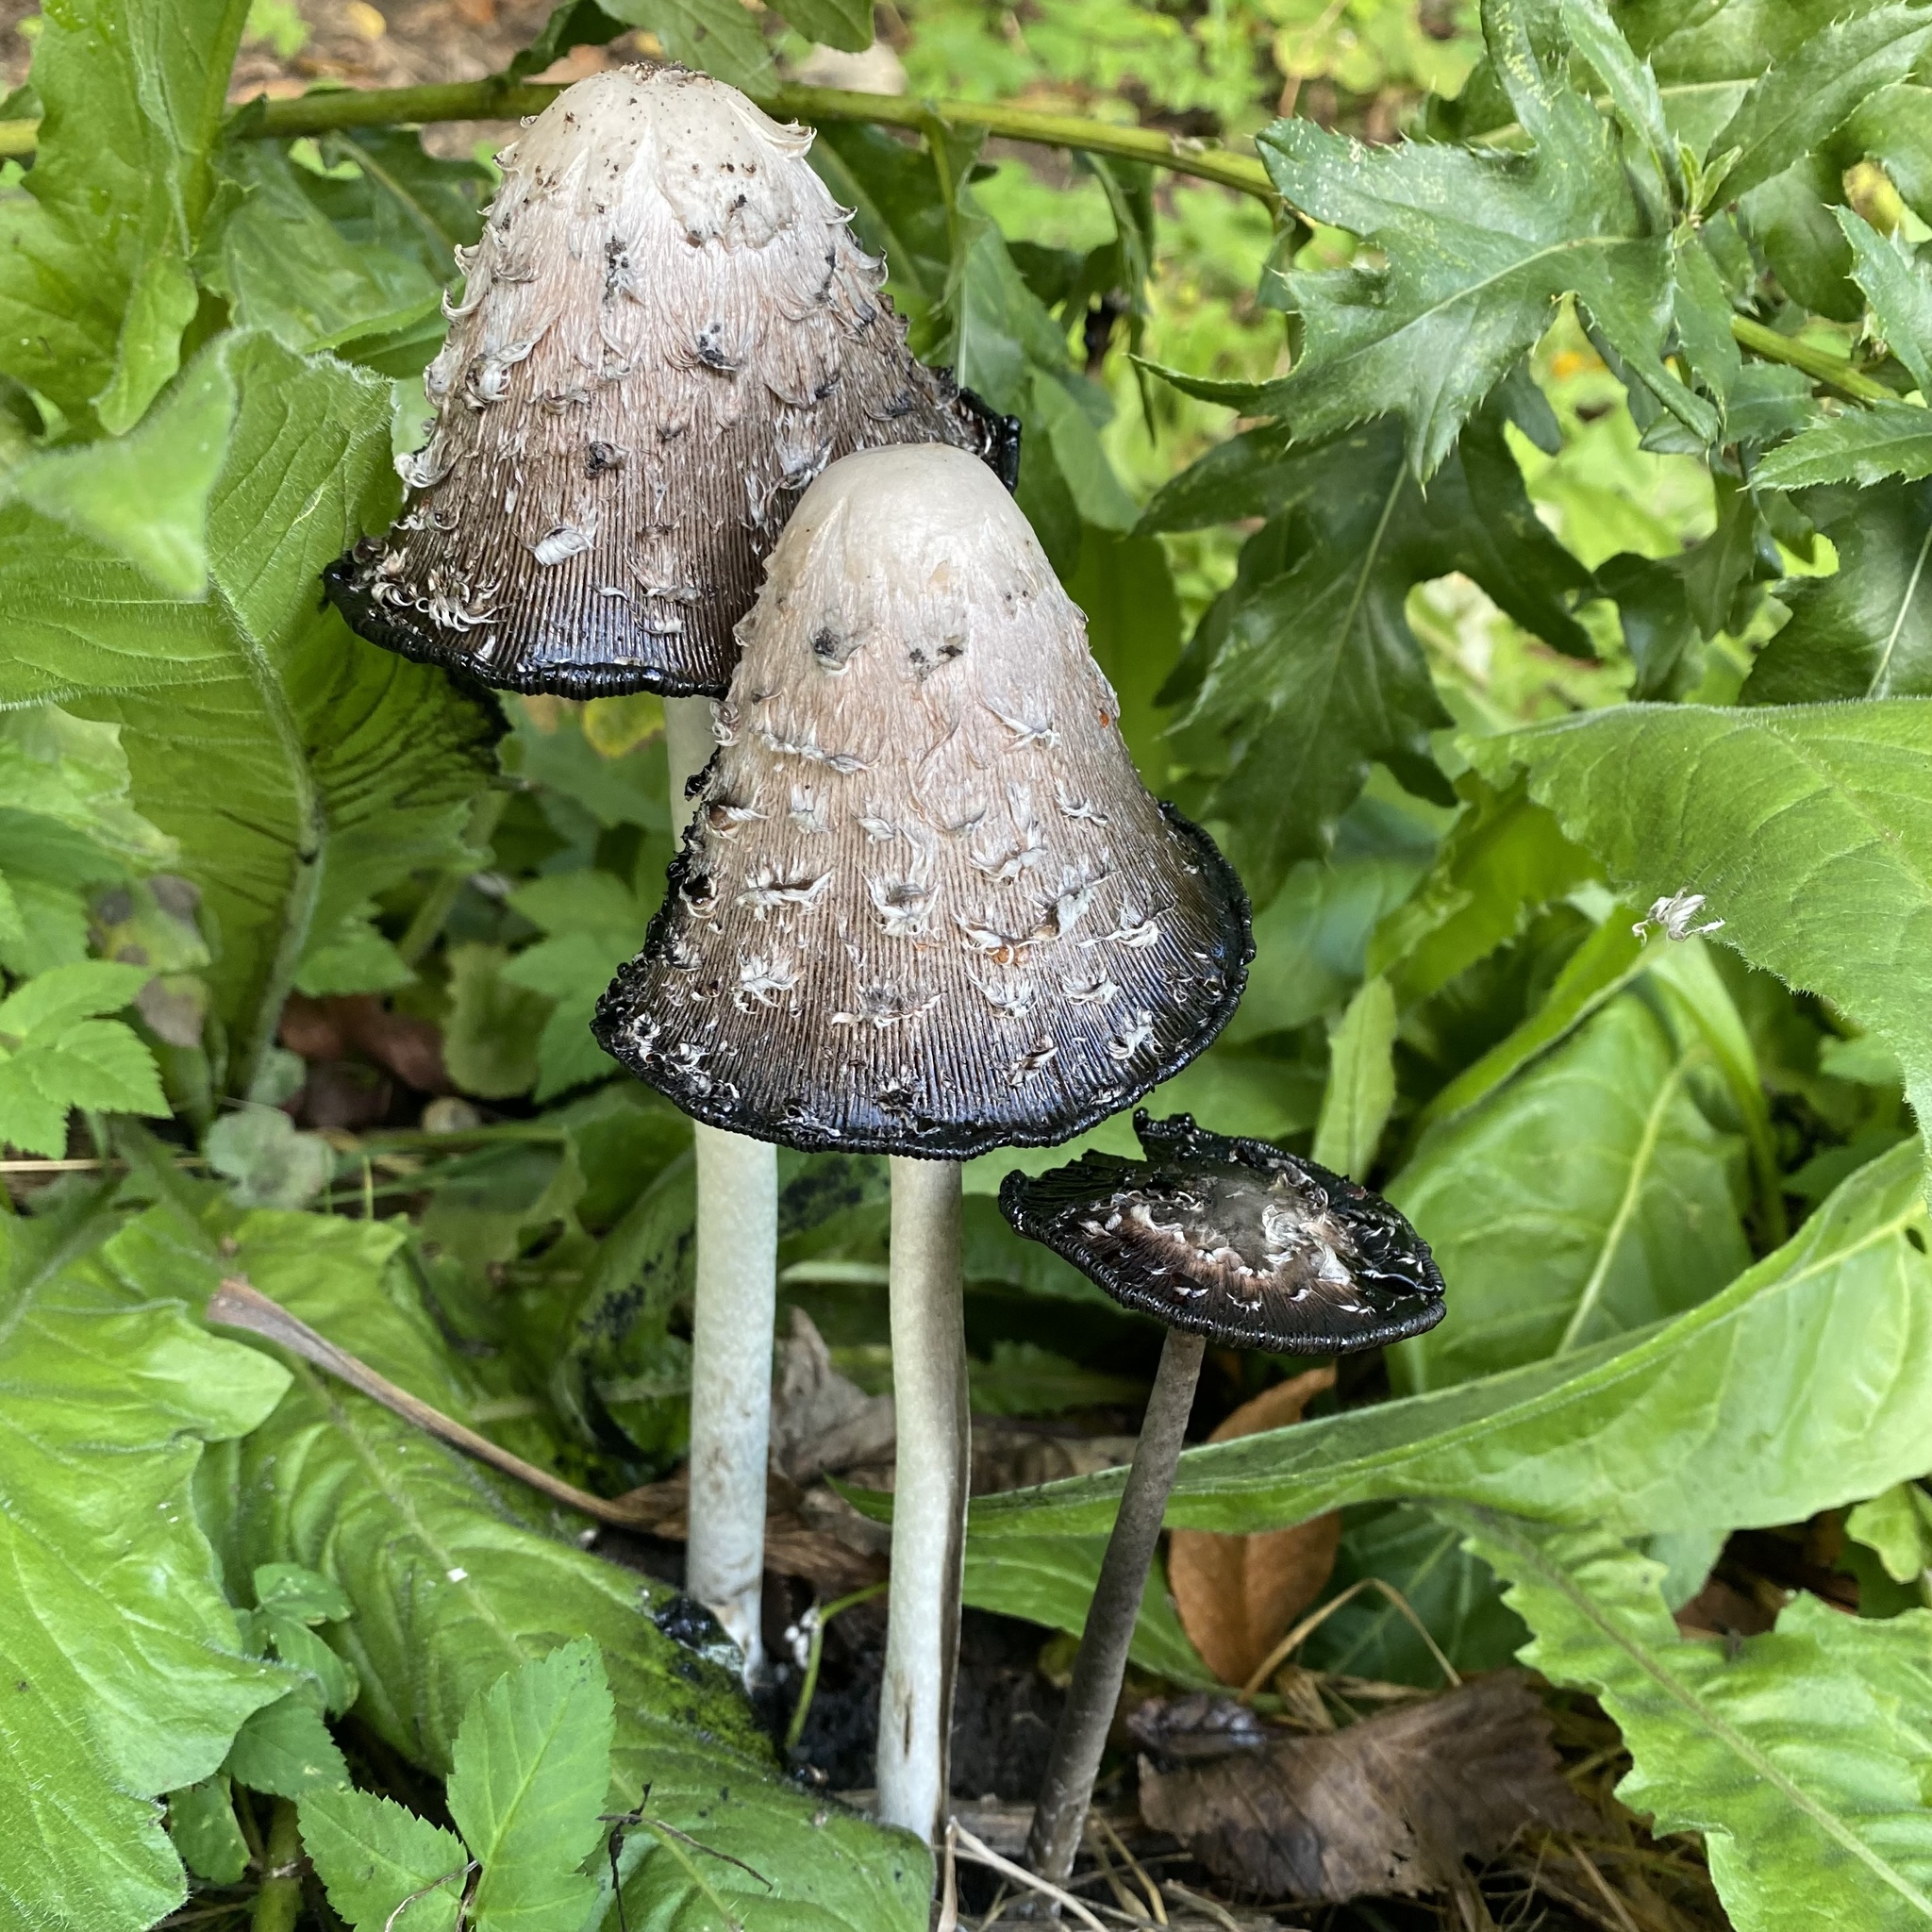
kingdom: Fungi
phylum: Basidiomycota
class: Agaricomycetes
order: Agaricales
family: Agaricaceae
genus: Coprinus
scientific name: Coprinus comatus
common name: Lawyer's wig
